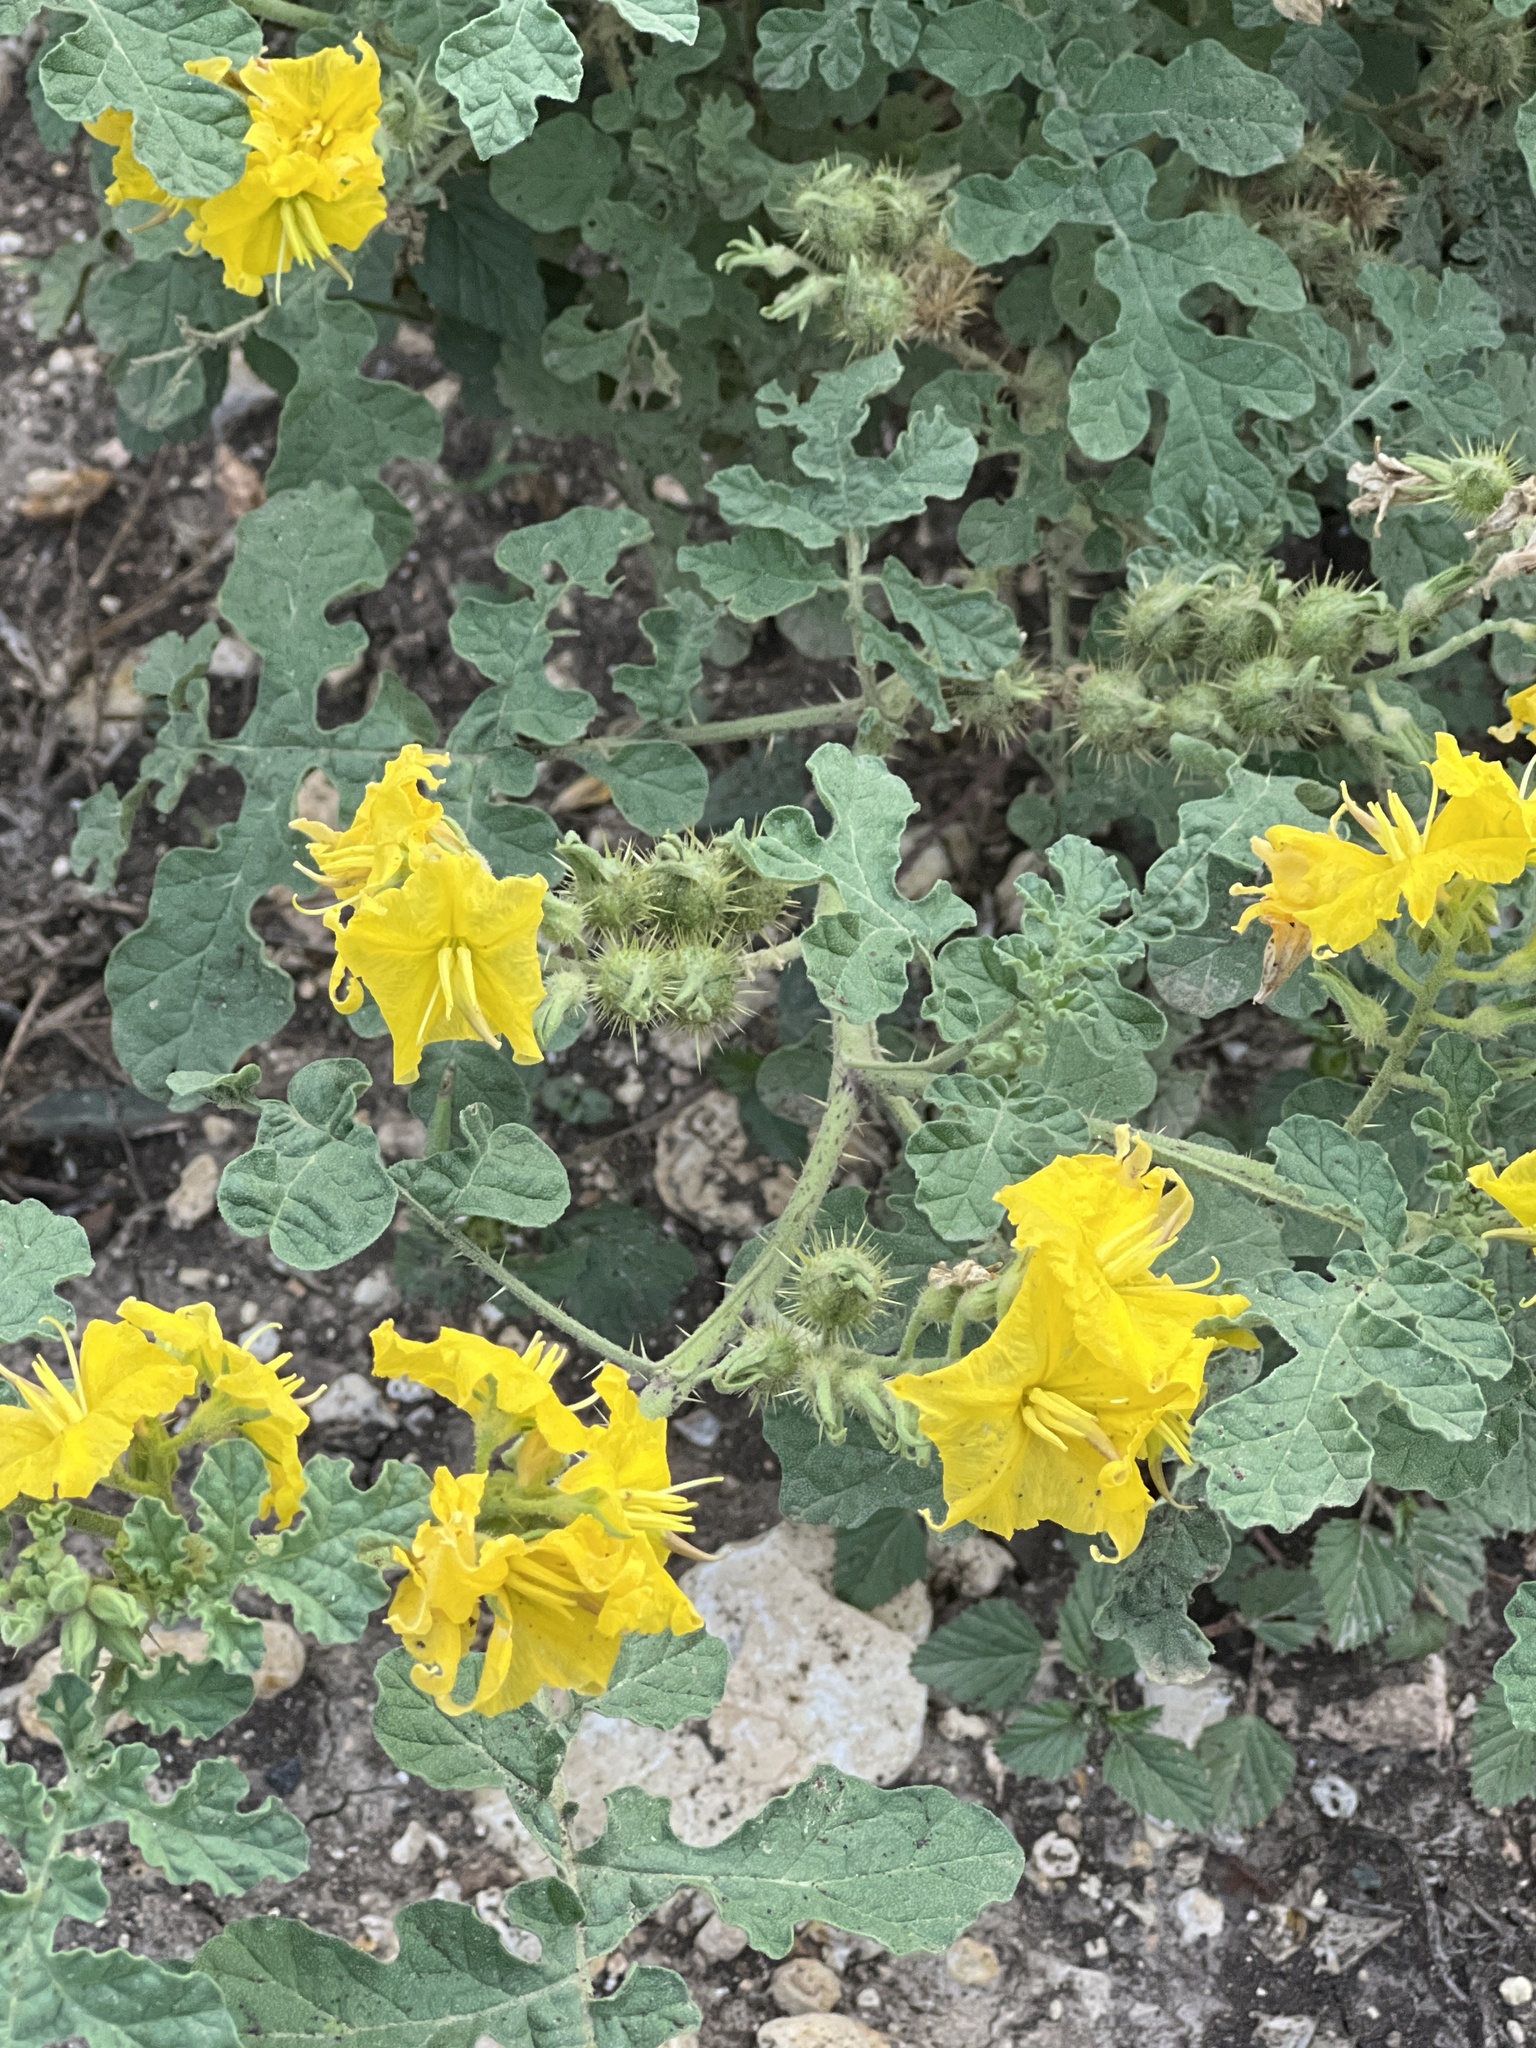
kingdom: Plantae
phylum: Tracheophyta
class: Magnoliopsida
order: Solanales
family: Solanaceae
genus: Solanum
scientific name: Solanum angustifolium
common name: Buffalobur nightshade
